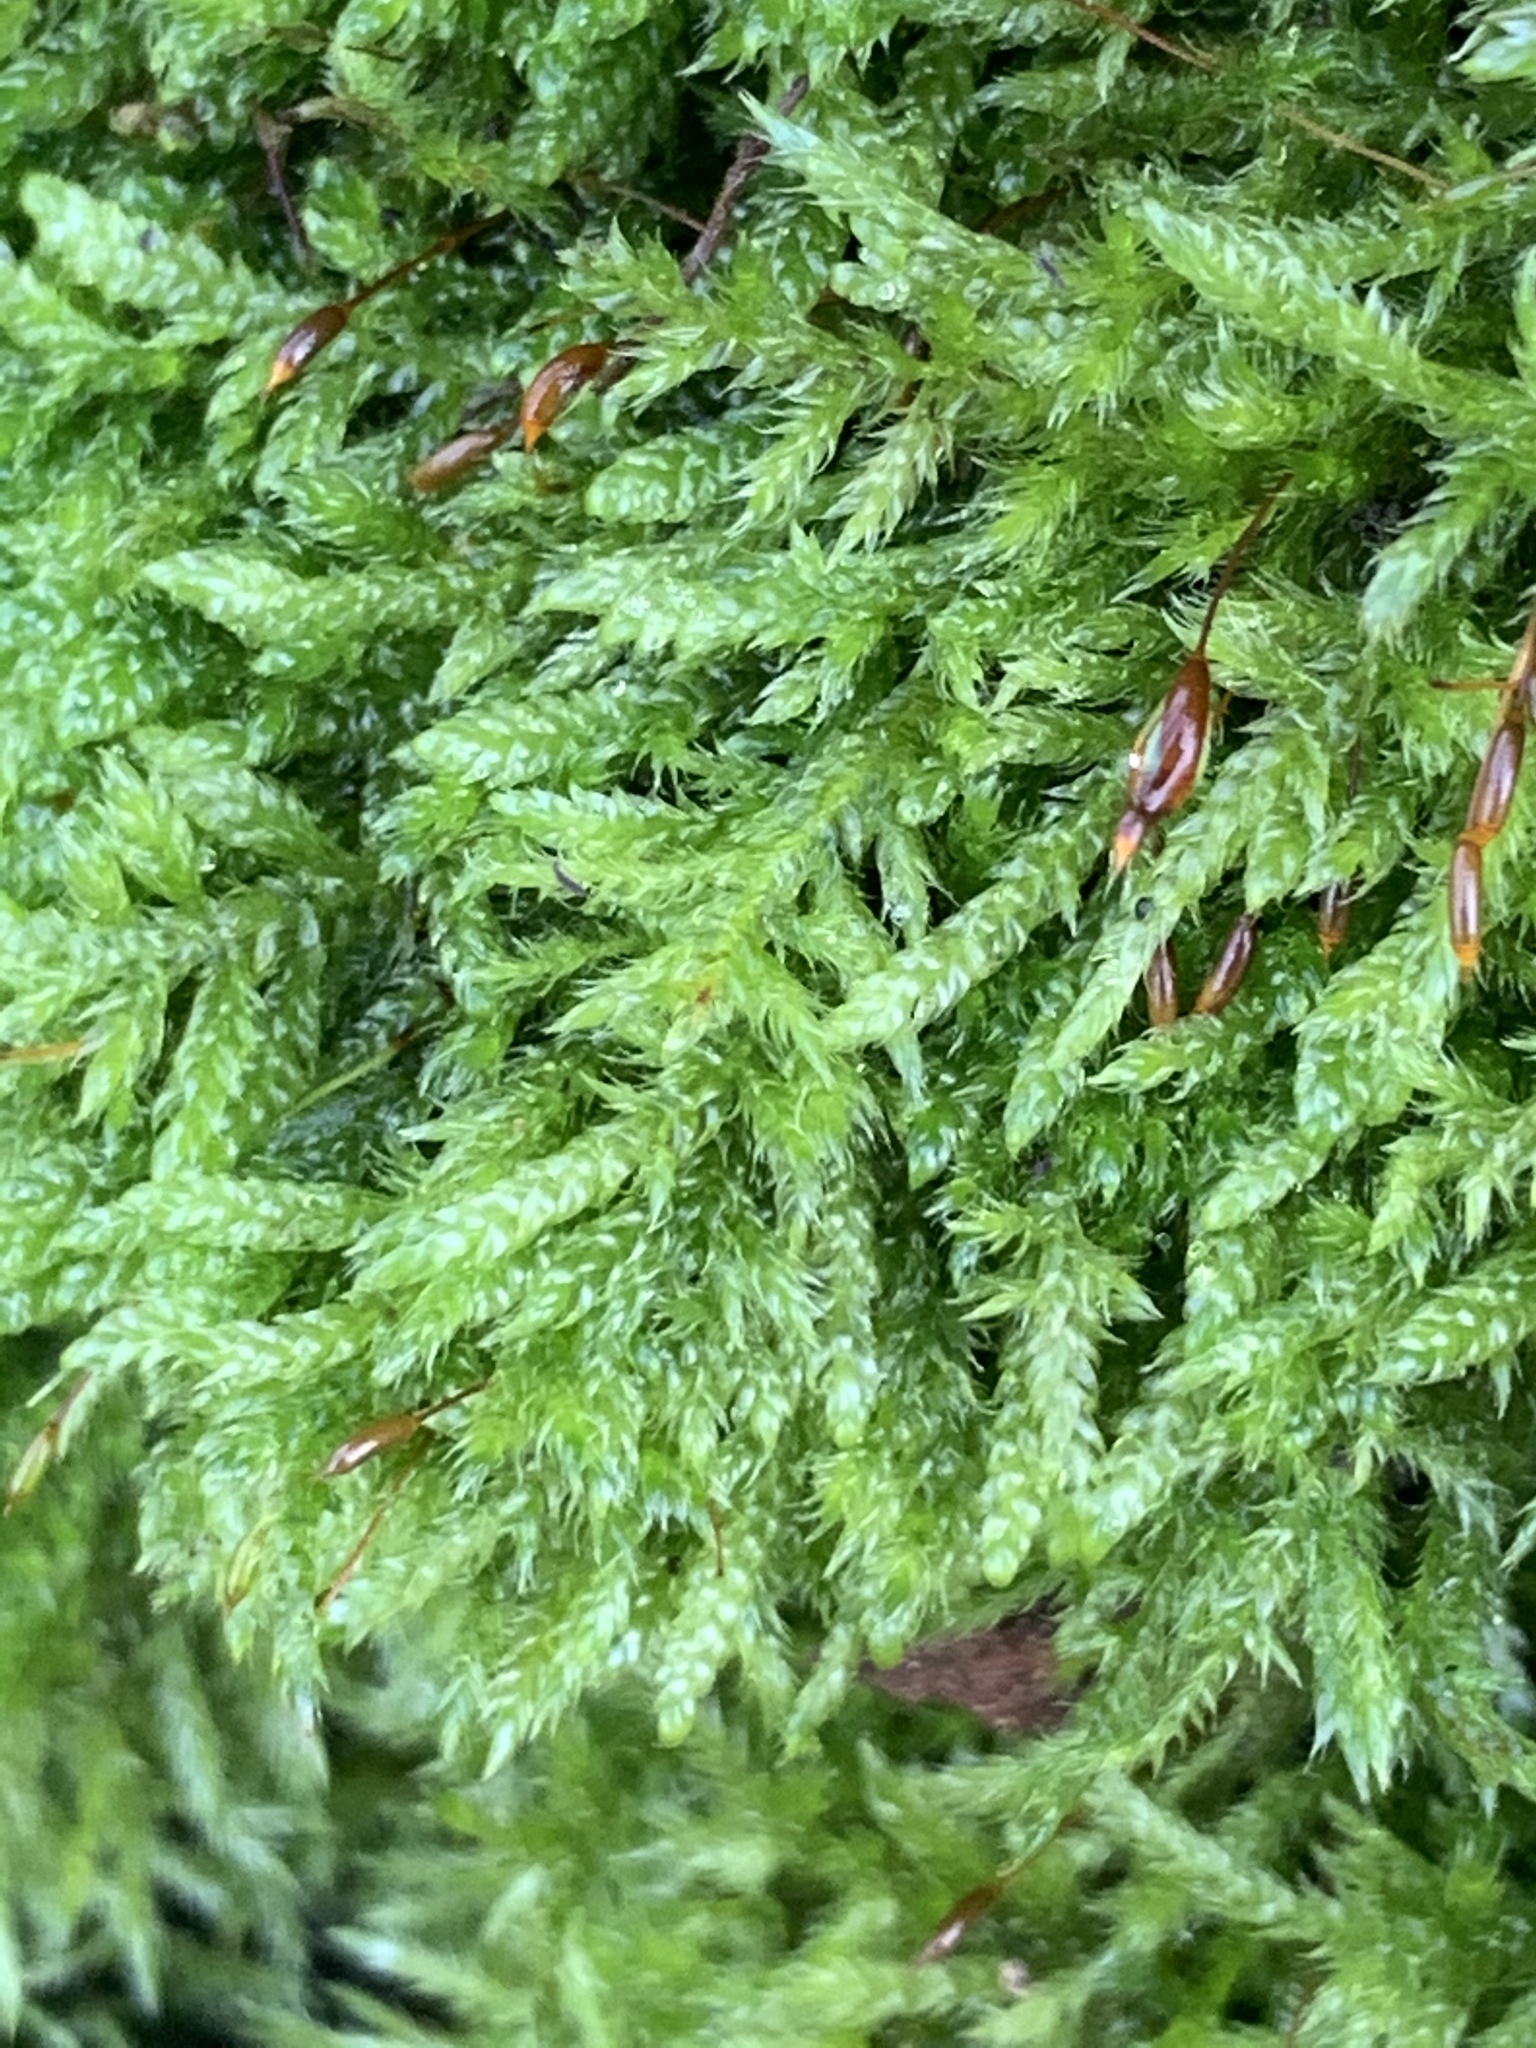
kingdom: Plantae
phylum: Bryophyta
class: Bryopsida
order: Hypnales
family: Hypnaceae
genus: Hypnum
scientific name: Hypnum cupressiforme
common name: Cypress-leaved plait-moss
